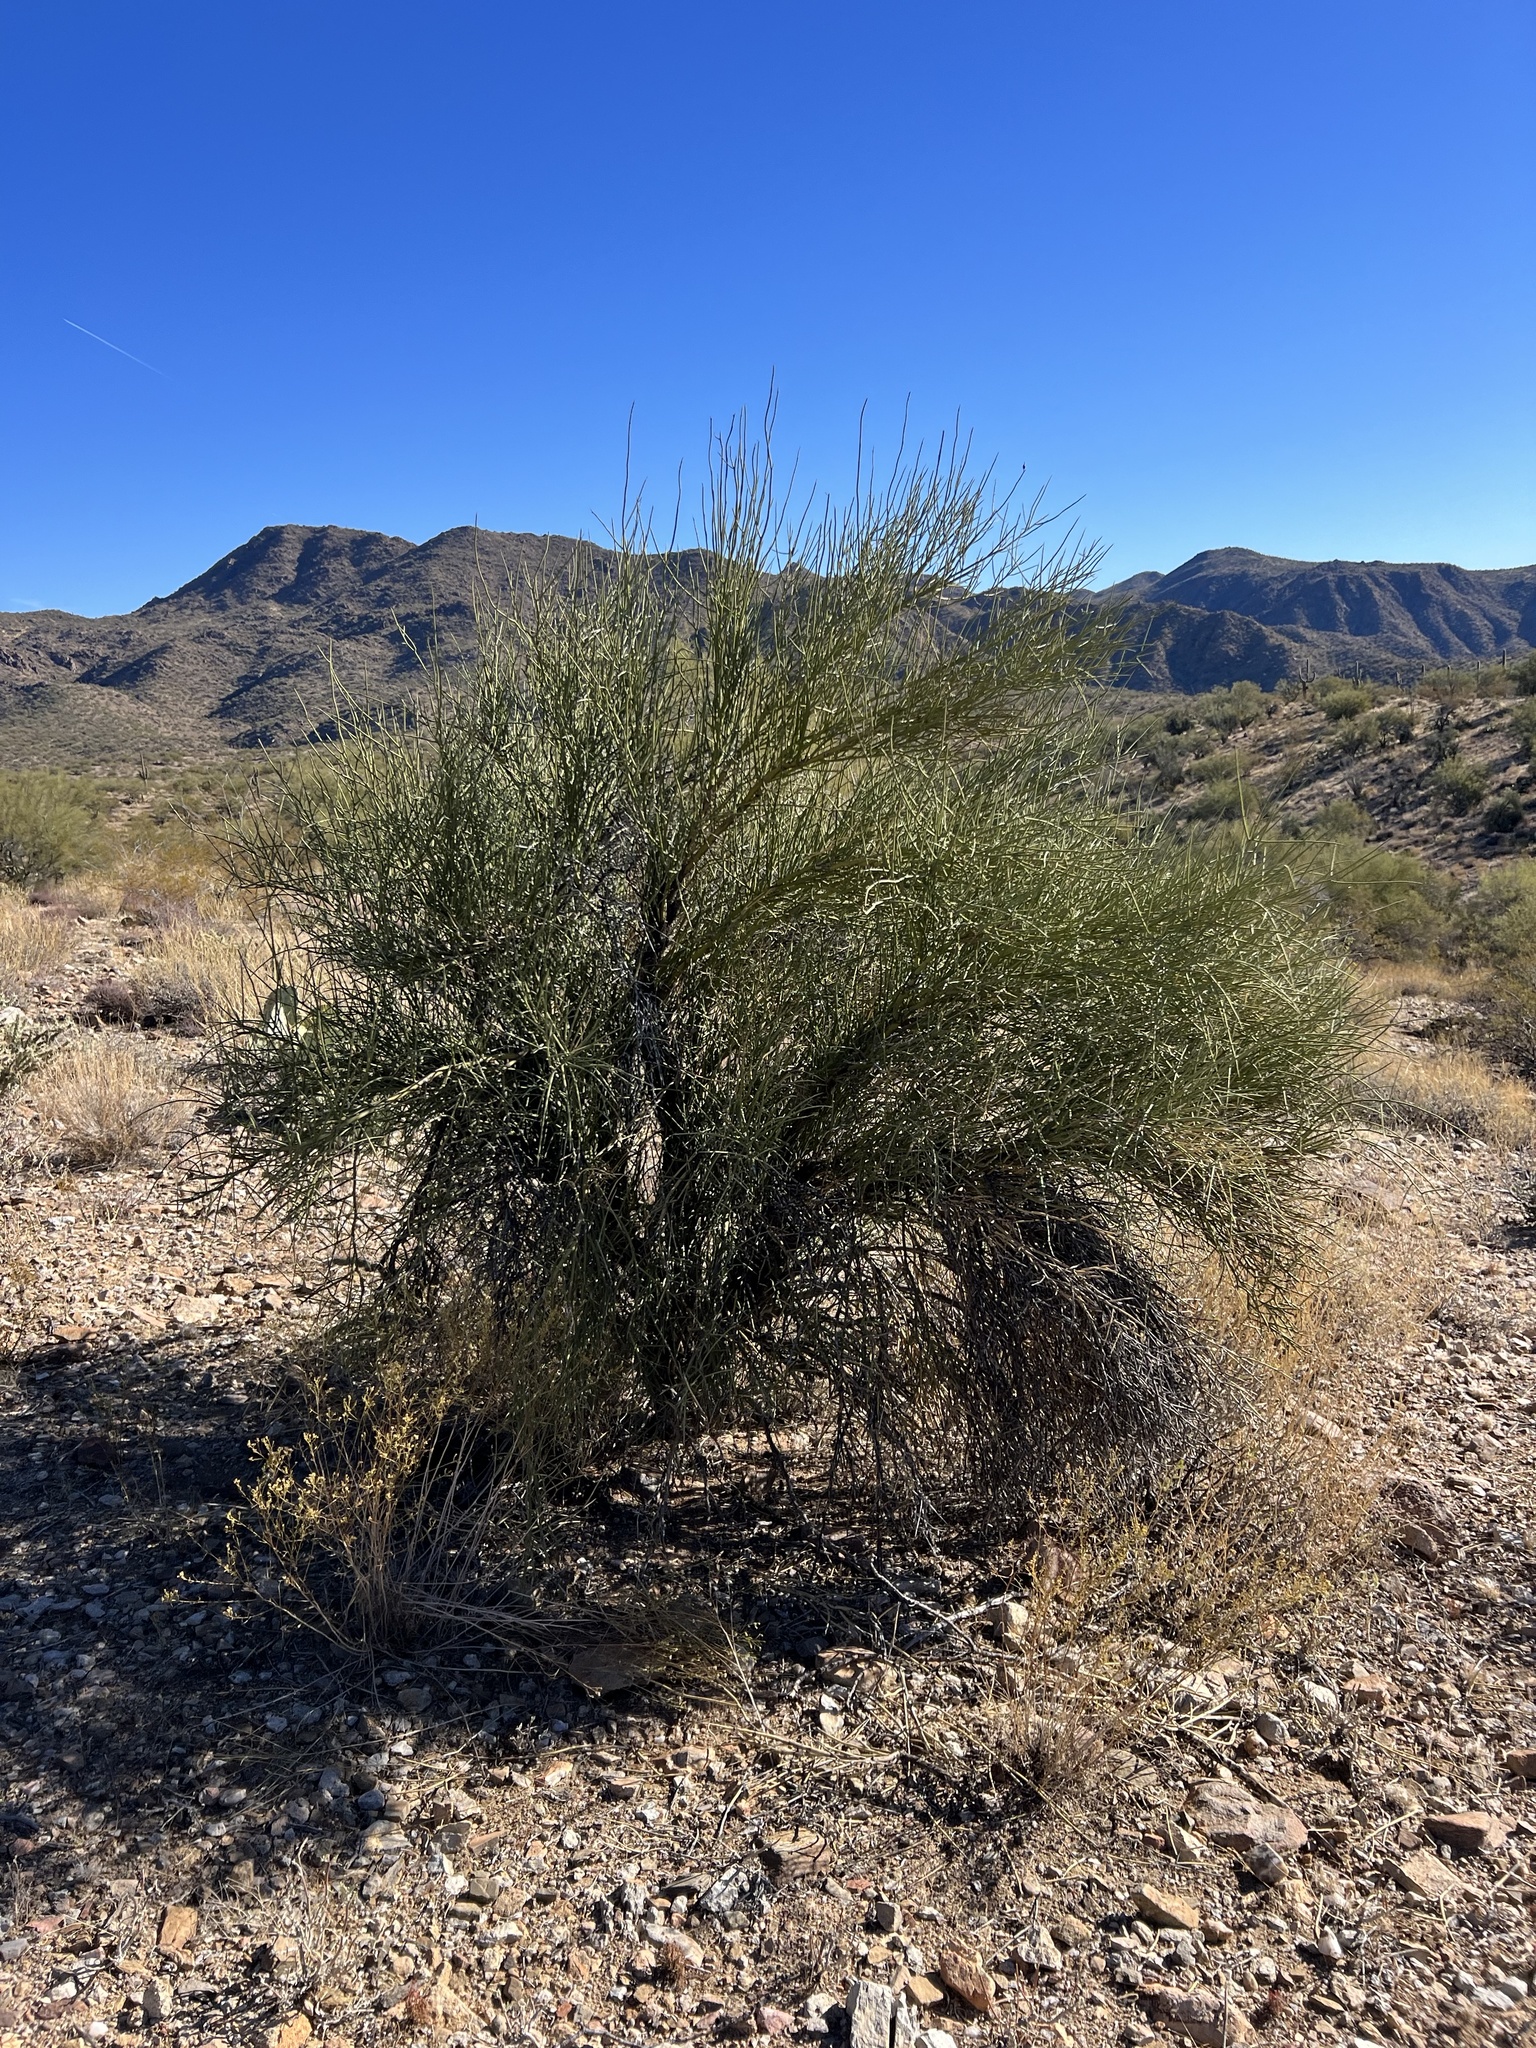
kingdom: Plantae
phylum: Tracheophyta
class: Magnoliopsida
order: Celastrales
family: Celastraceae
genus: Canotia
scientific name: Canotia holacantha
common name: Crucifixion thorns
